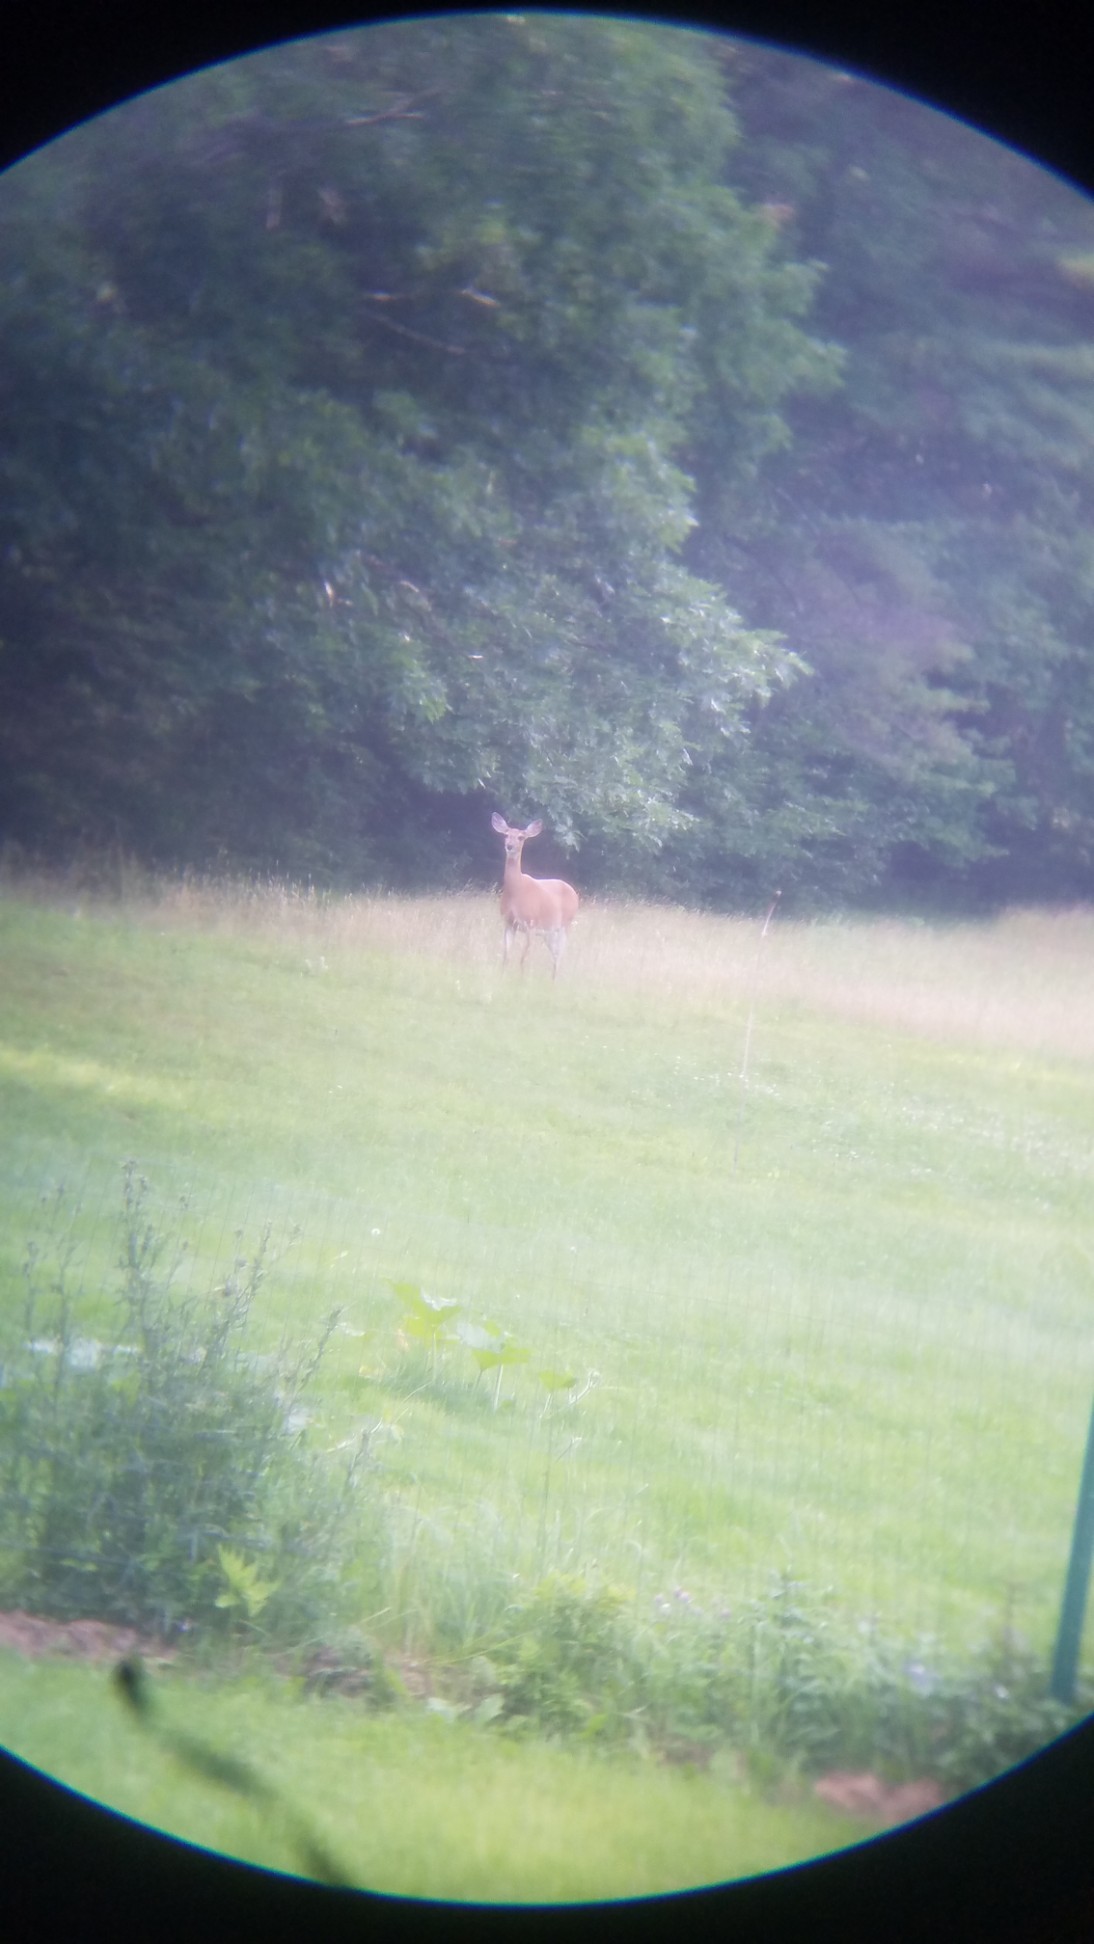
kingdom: Animalia
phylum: Chordata
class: Mammalia
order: Artiodactyla
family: Cervidae
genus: Odocoileus
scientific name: Odocoileus virginianus
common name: White-tailed deer
